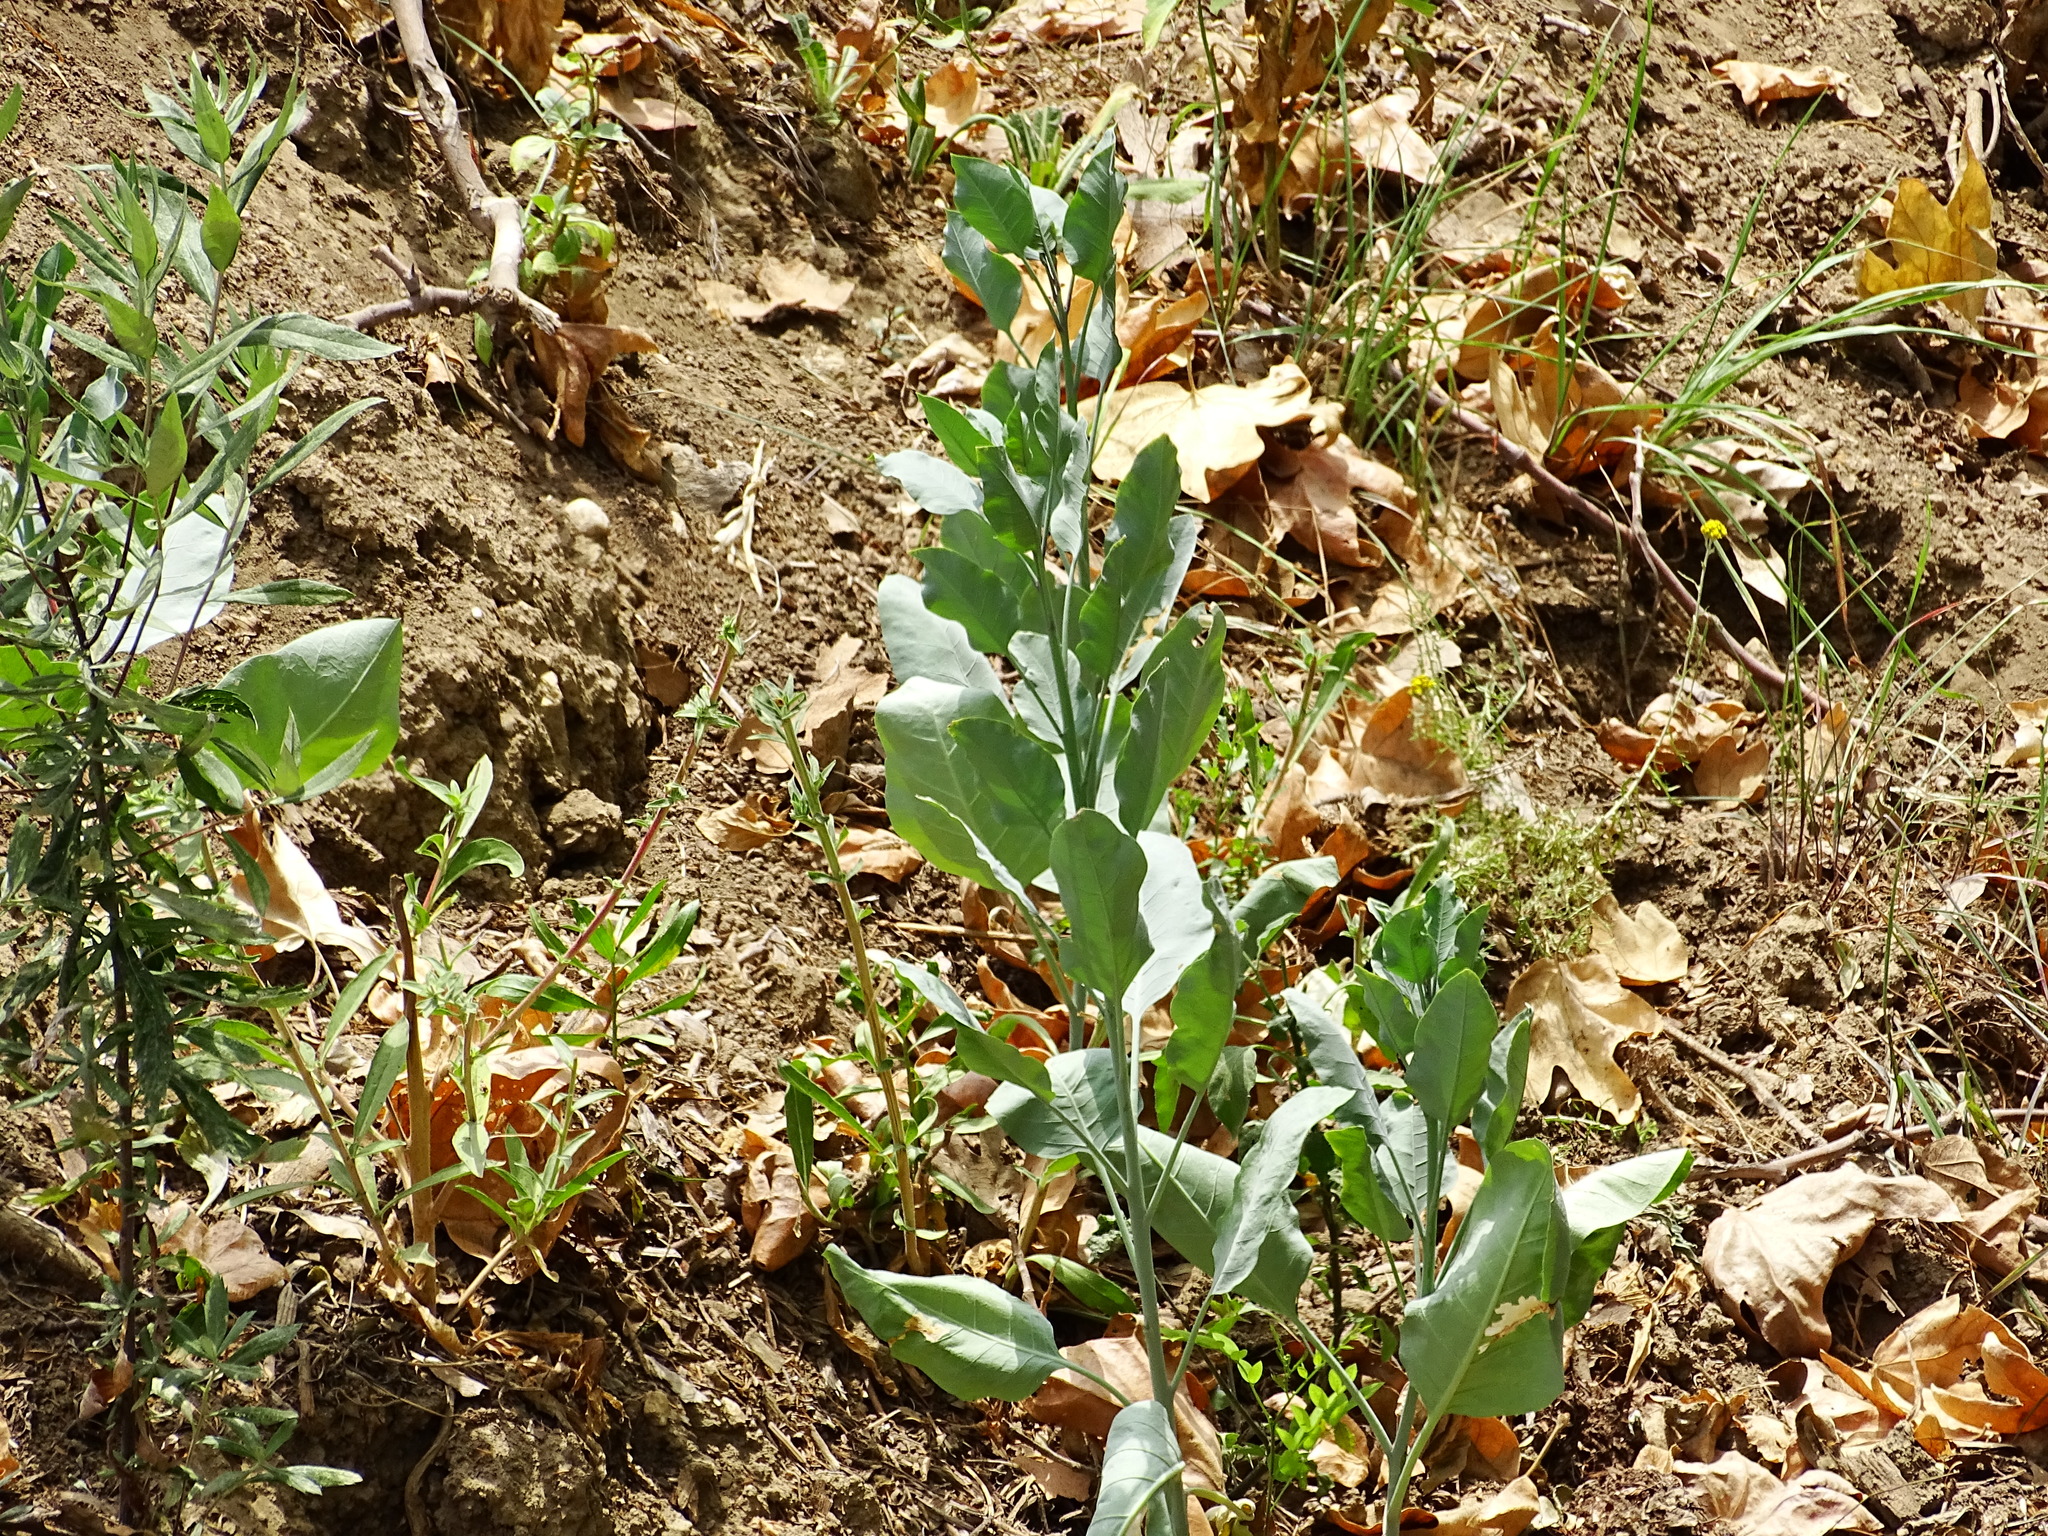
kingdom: Plantae
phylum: Tracheophyta
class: Magnoliopsida
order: Solanales
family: Solanaceae
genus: Nicotiana
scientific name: Nicotiana glauca
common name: Tree tobacco
